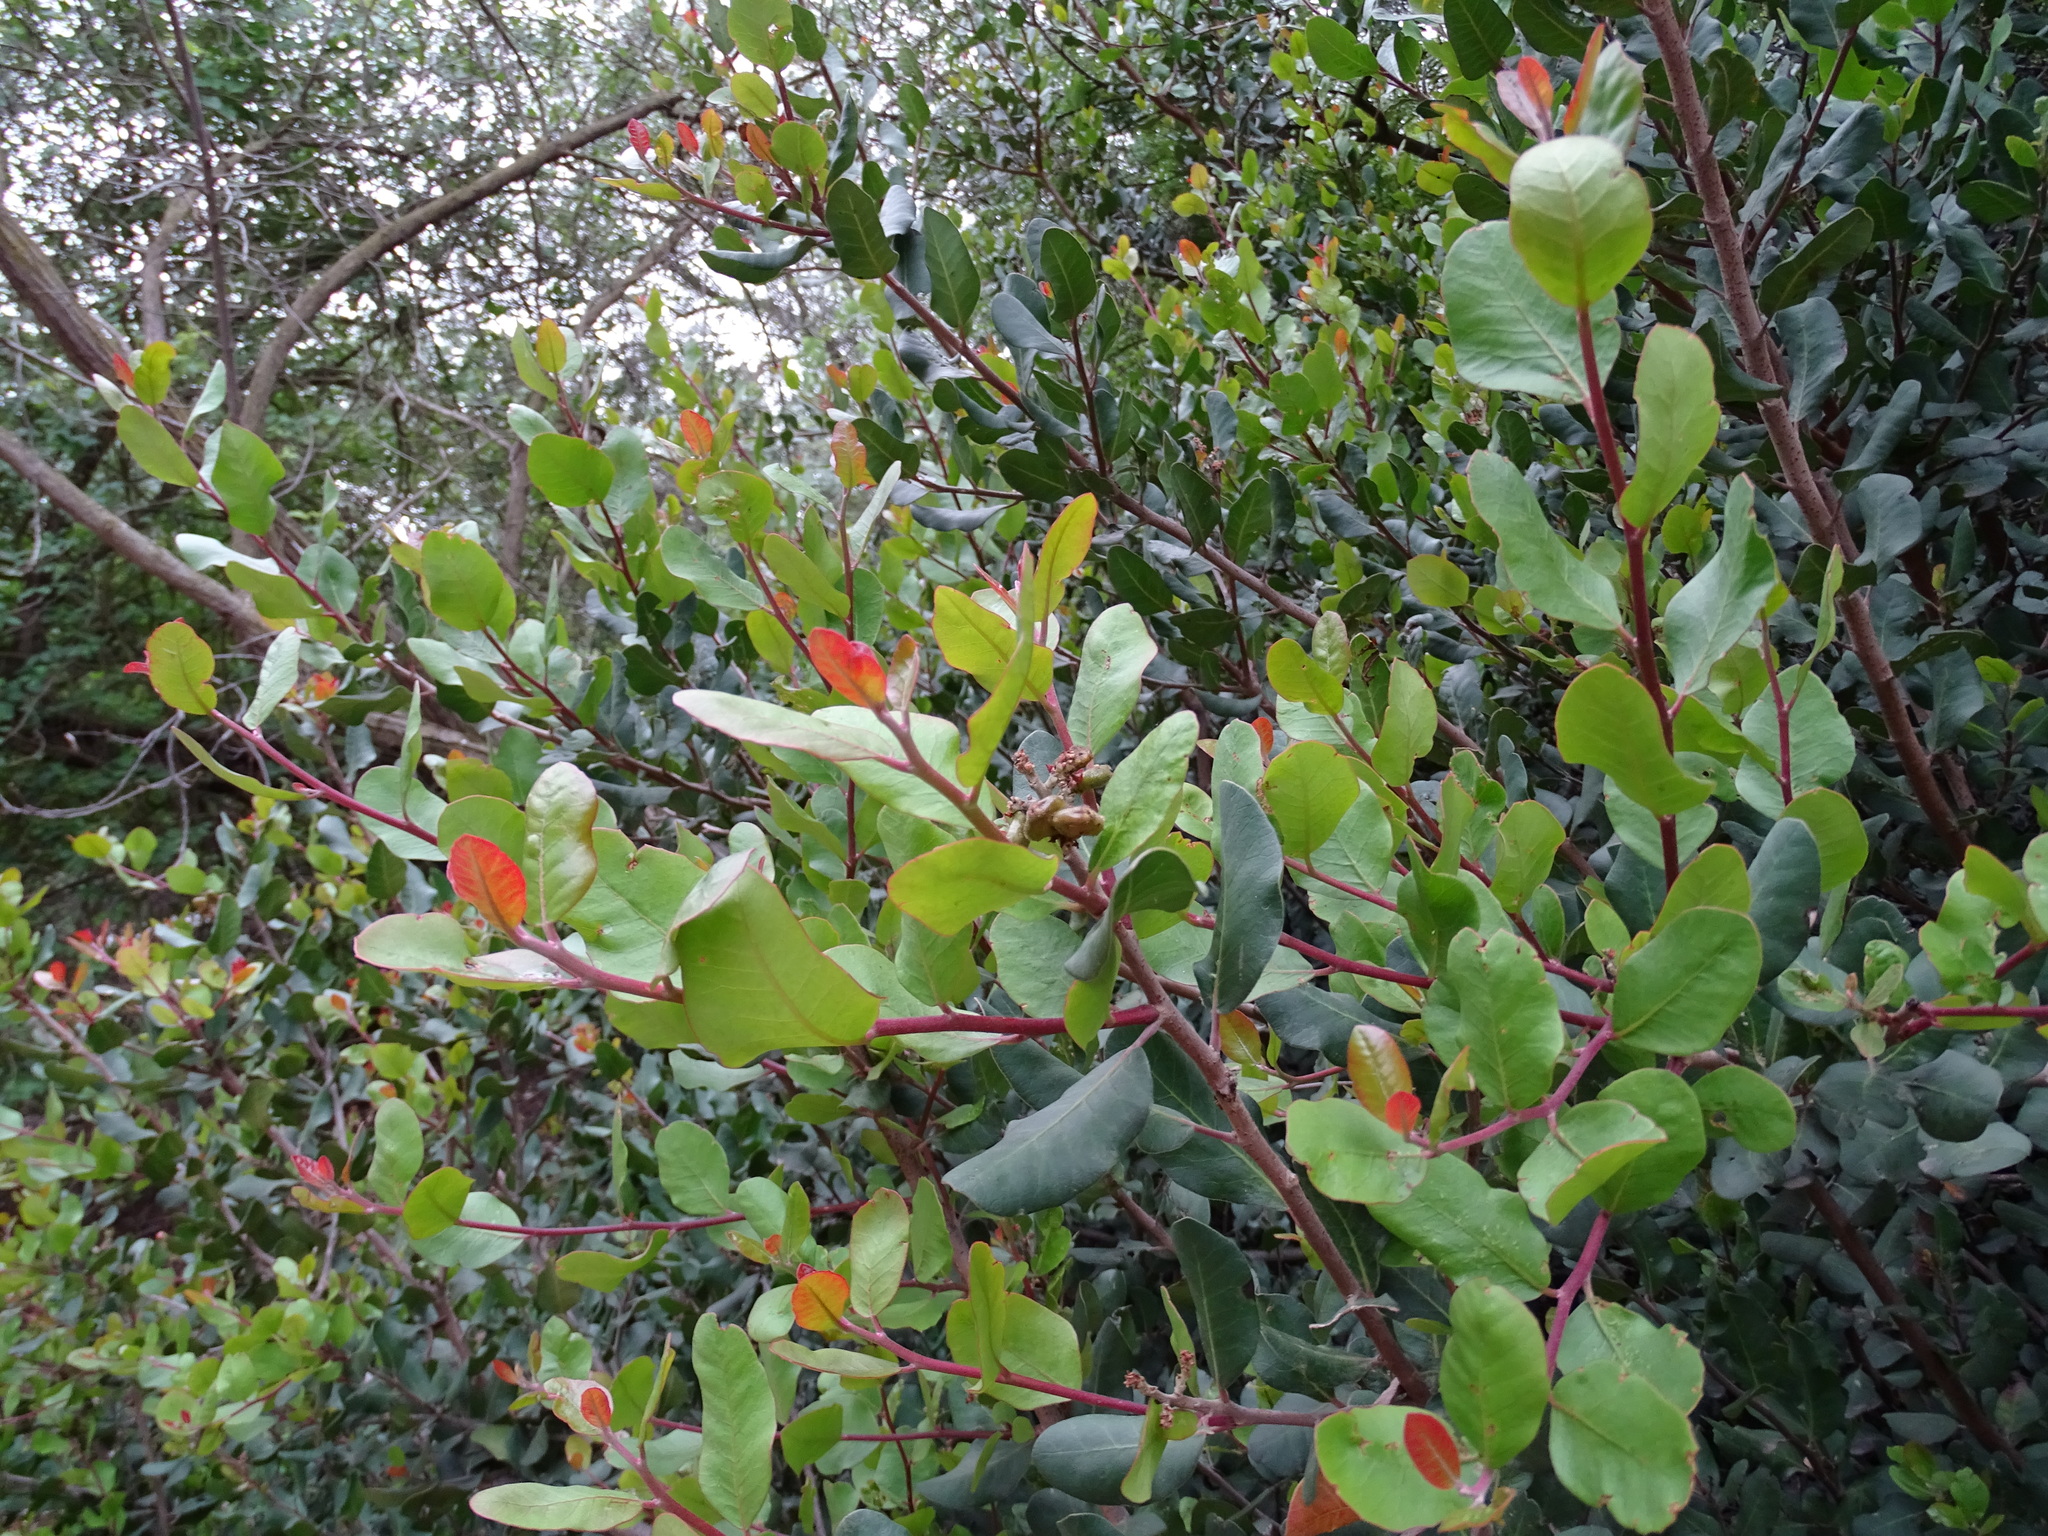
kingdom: Plantae
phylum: Tracheophyta
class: Magnoliopsida
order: Sapindales
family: Anacardiaceae
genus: Rhus
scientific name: Rhus integrifolia
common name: Lemonade sumac
